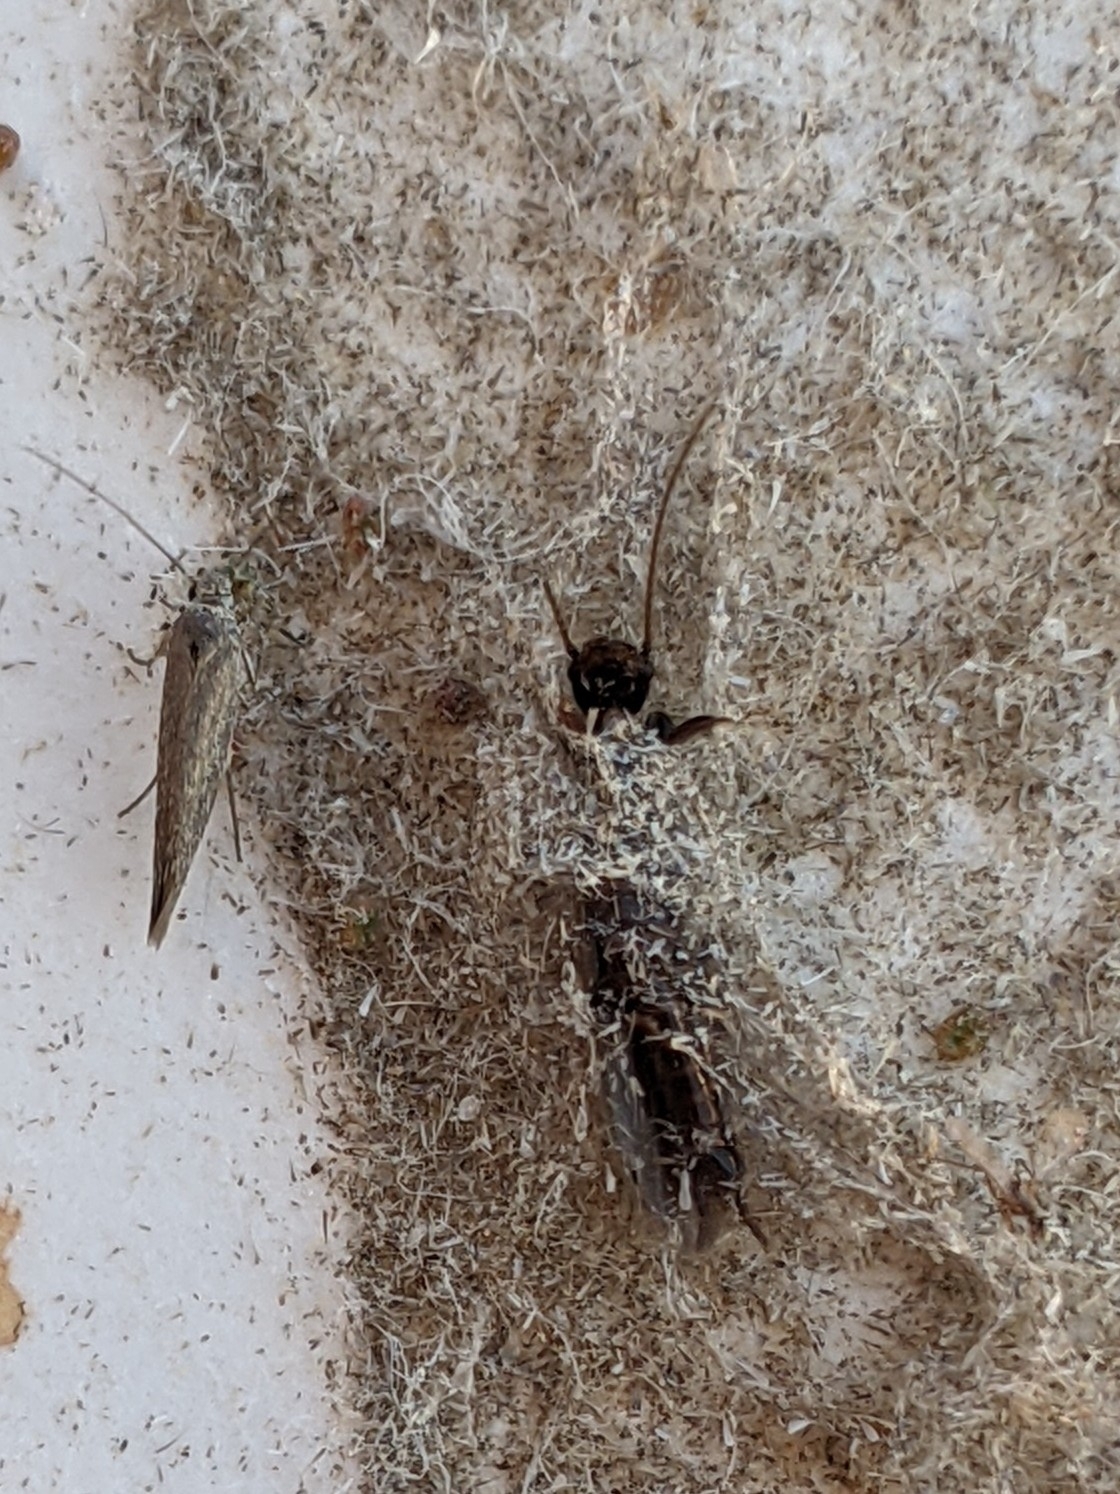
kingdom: Animalia
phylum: Arthropoda
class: Insecta
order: Embioptera
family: Oligotomidae
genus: Oligotoma
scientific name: Oligotoma nigra
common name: Black webspinner
